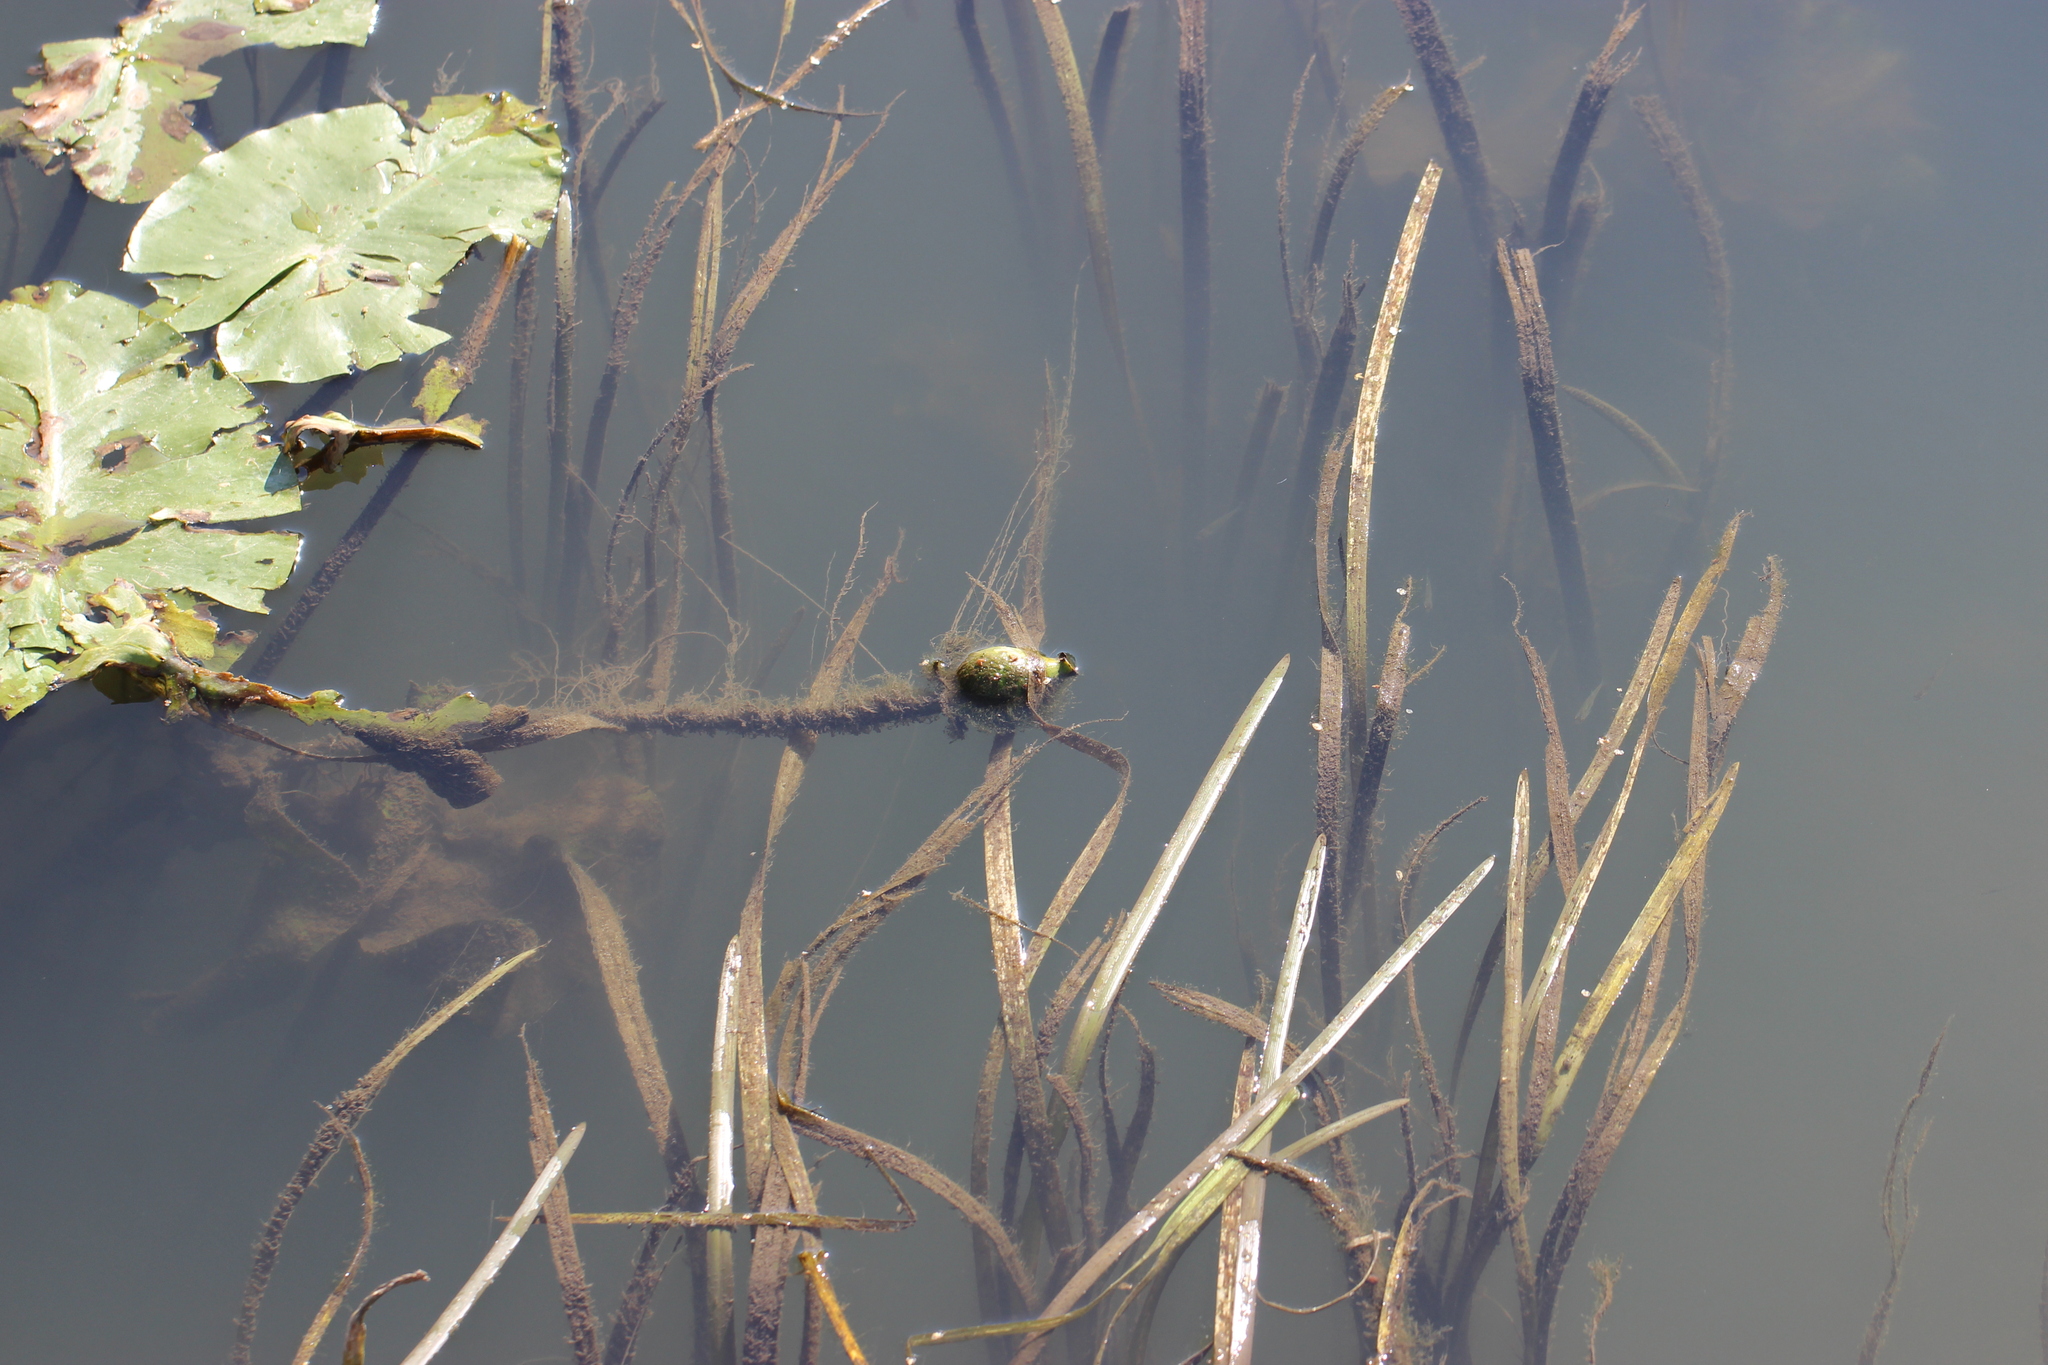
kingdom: Plantae
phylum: Tracheophyta
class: Magnoliopsida
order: Nymphaeales
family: Nymphaeaceae
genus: Nuphar
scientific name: Nuphar lutea
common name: Yellow water-lily
